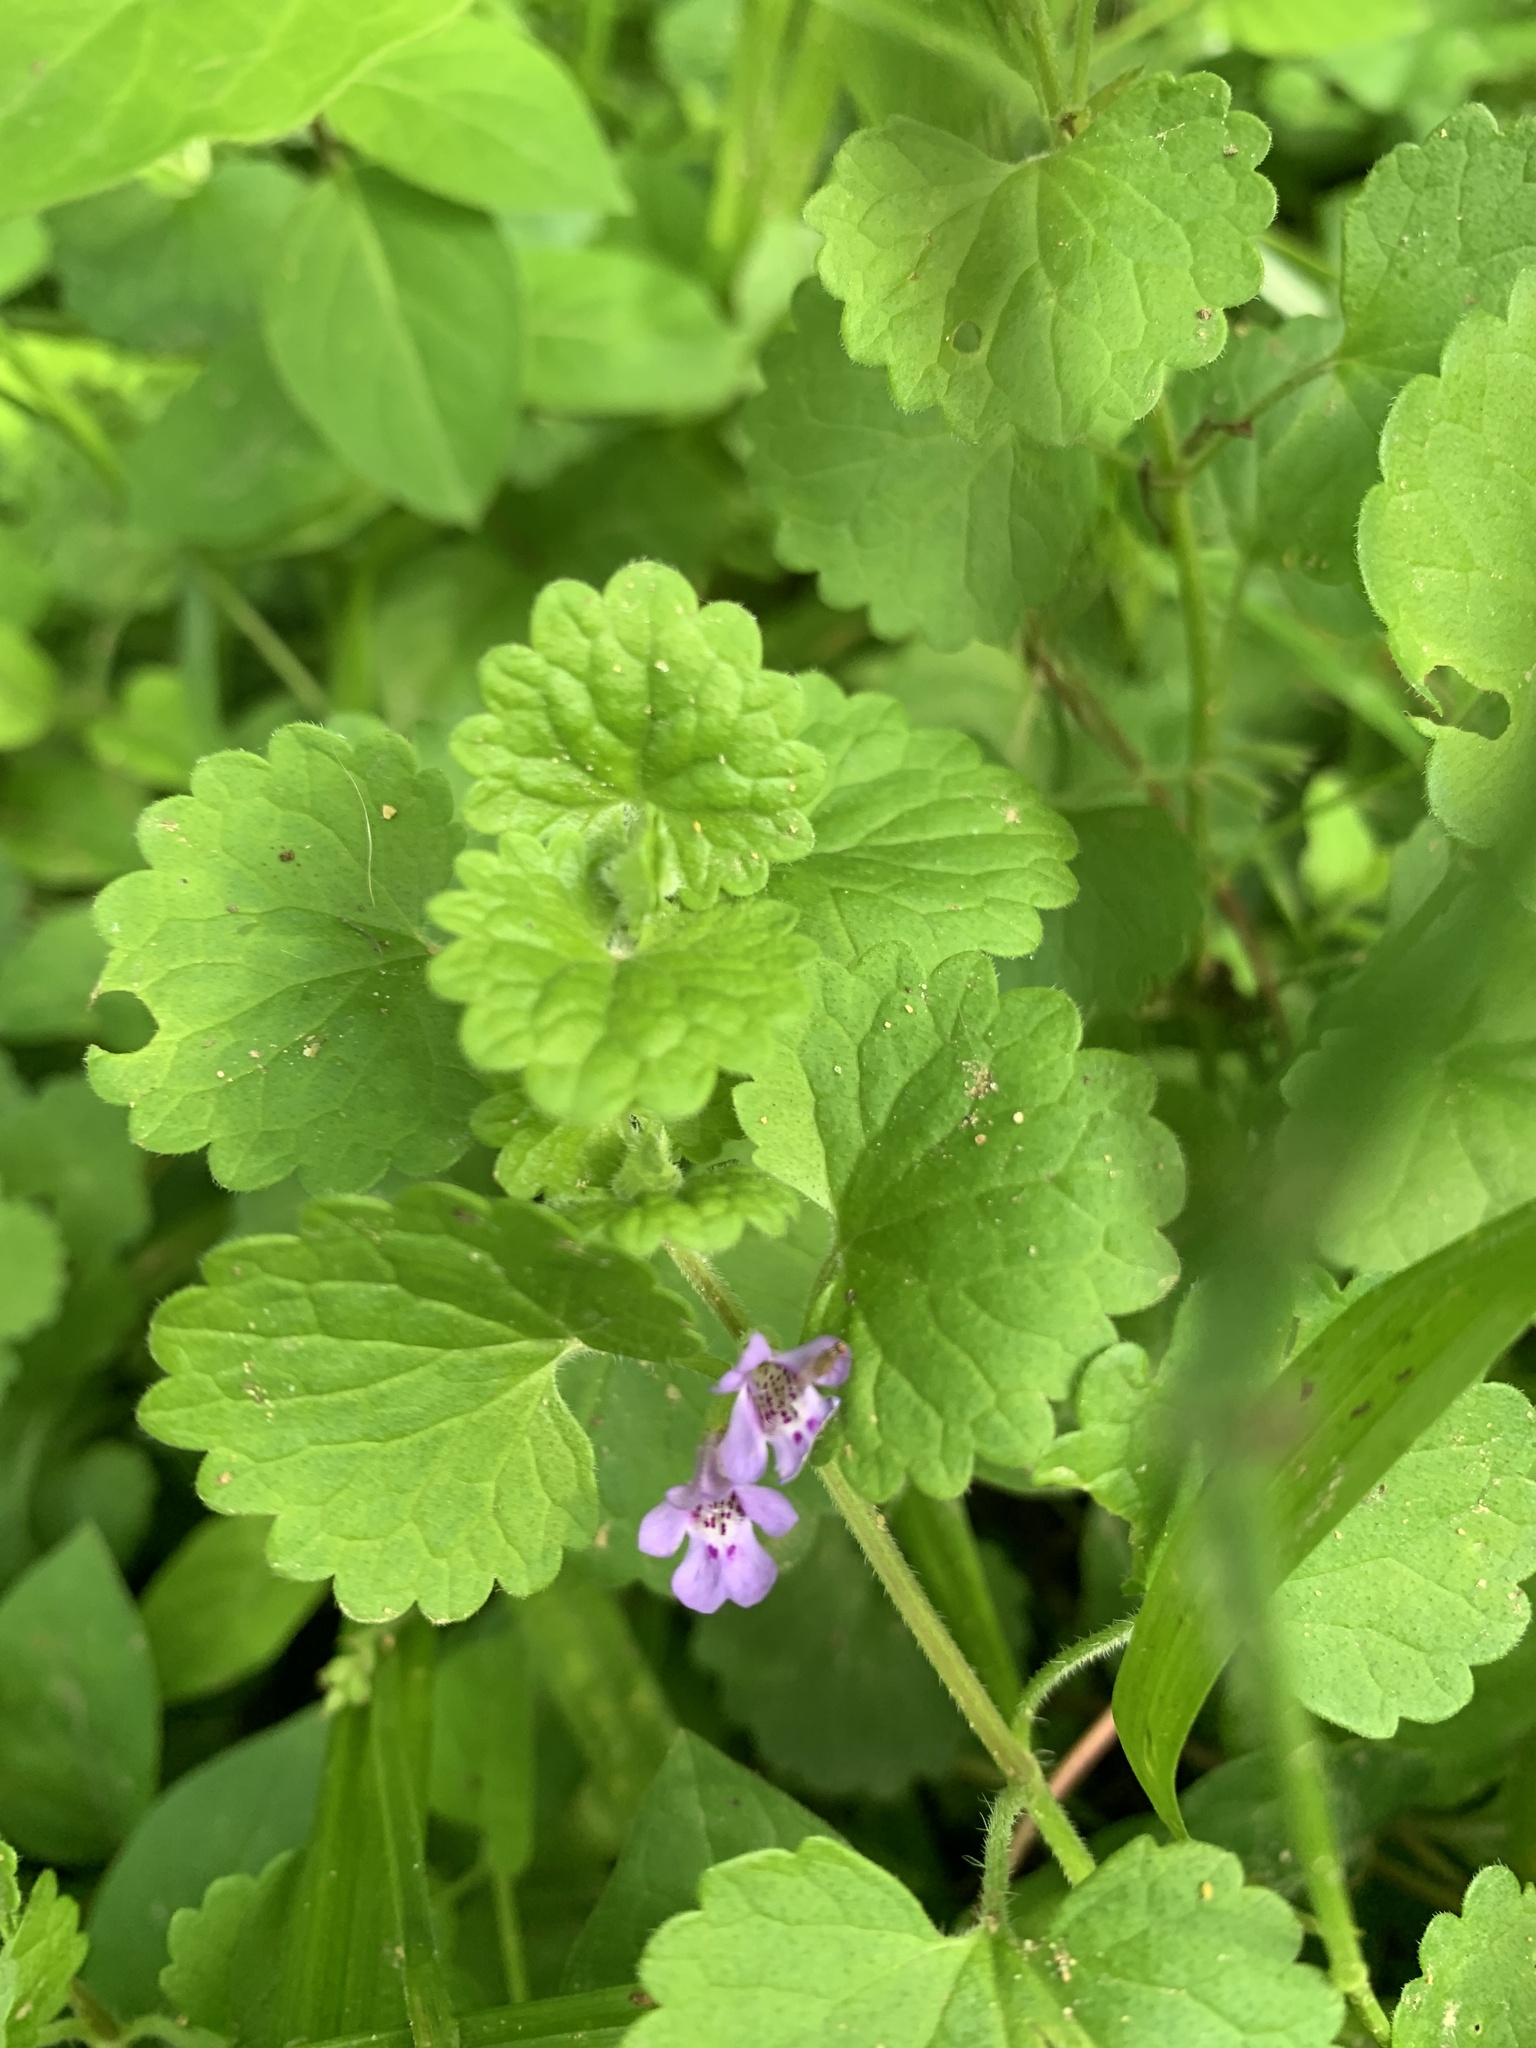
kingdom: Plantae
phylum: Tracheophyta
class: Magnoliopsida
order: Lamiales
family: Lamiaceae
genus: Glechoma
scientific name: Glechoma hederacea
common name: Ground ivy
